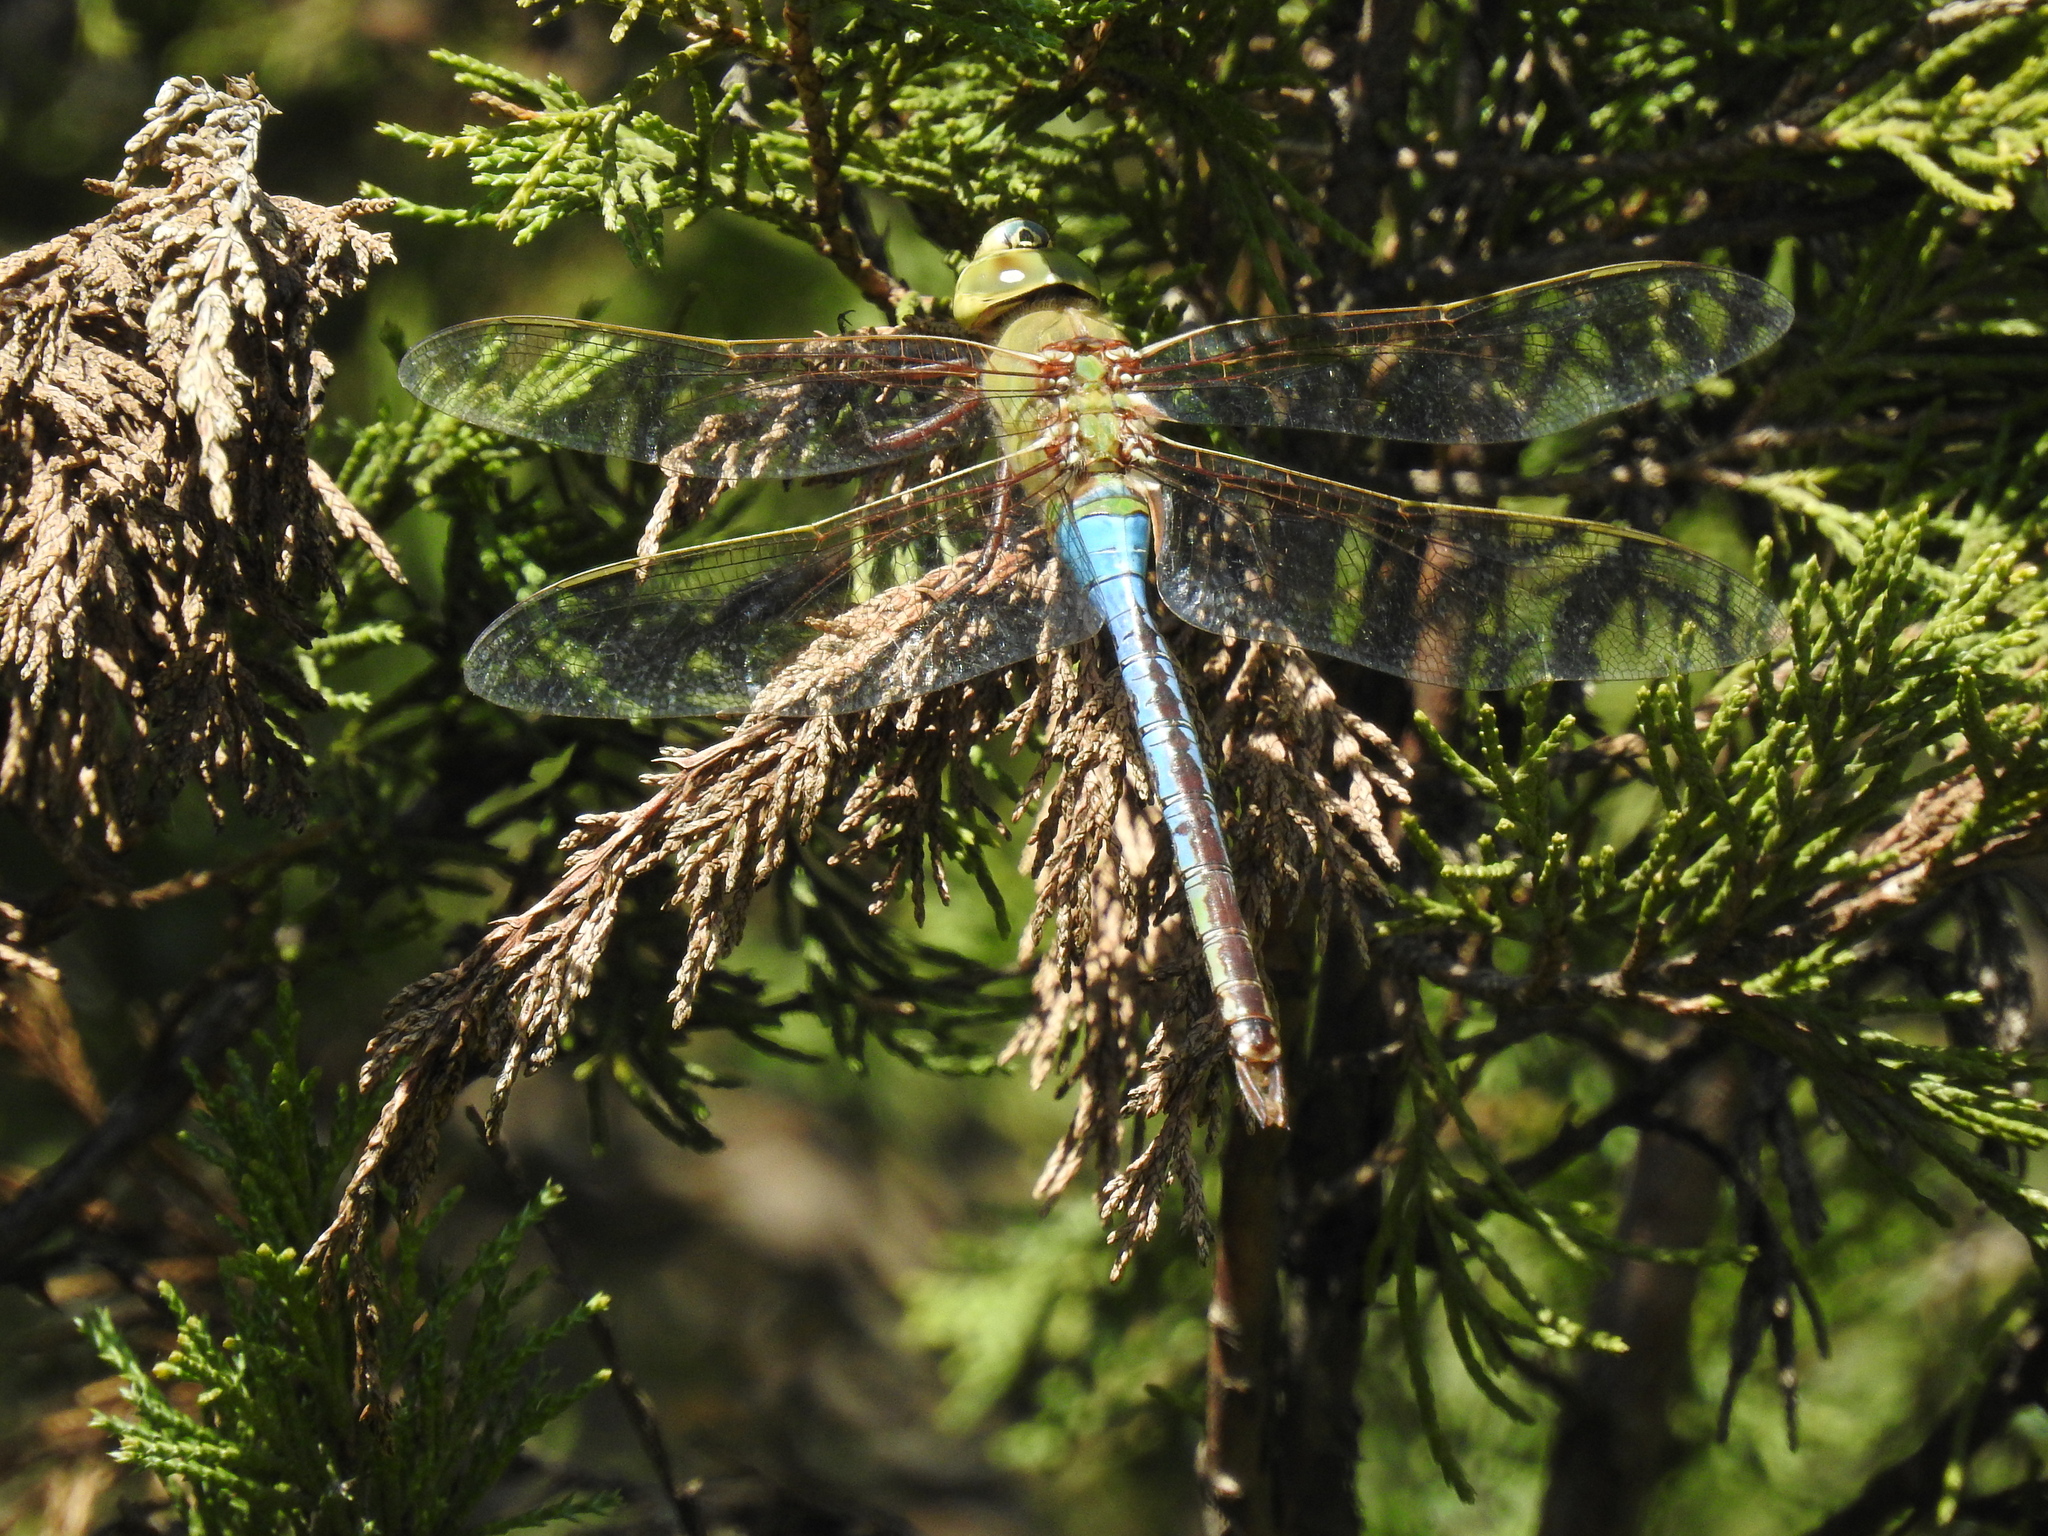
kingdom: Animalia
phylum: Arthropoda
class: Insecta
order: Odonata
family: Aeshnidae
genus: Anax
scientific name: Anax junius
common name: Common green darner
